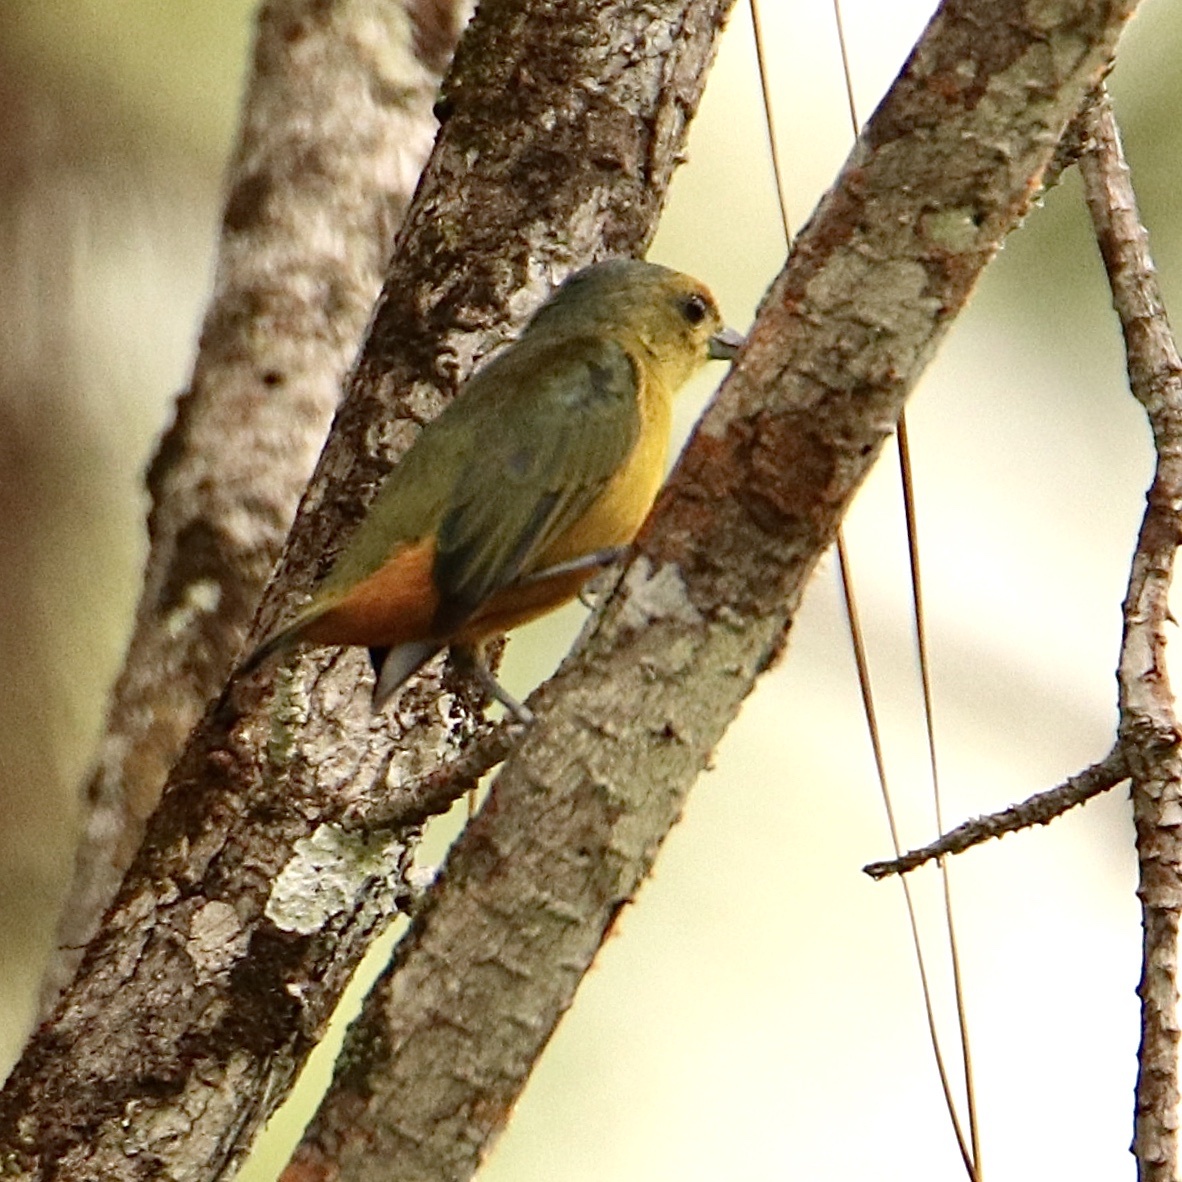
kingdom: Animalia
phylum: Chordata
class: Aves
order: Passeriformes
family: Fringillidae
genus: Euphonia
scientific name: Euphonia fulvicrissa
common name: Fulvous-vented euphonia
